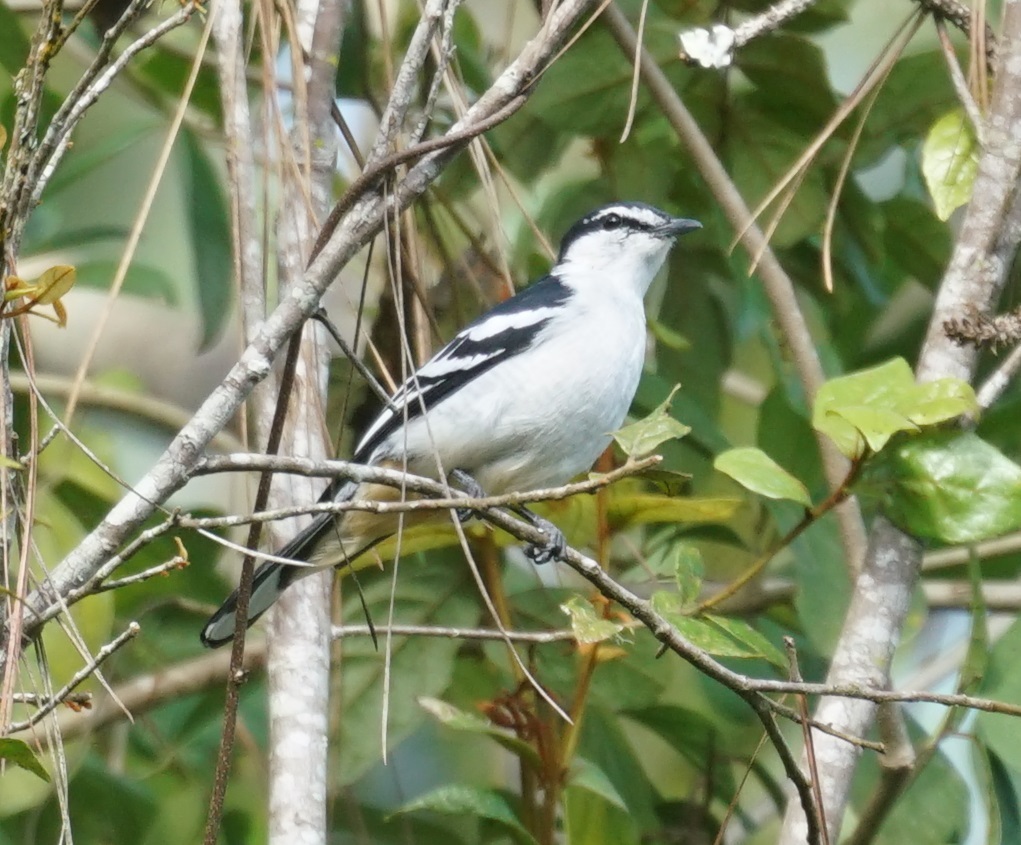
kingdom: Animalia
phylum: Chordata
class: Aves
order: Passeriformes
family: Campephagidae
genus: Lalage
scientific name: Lalage leucomela
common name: Varied triller
